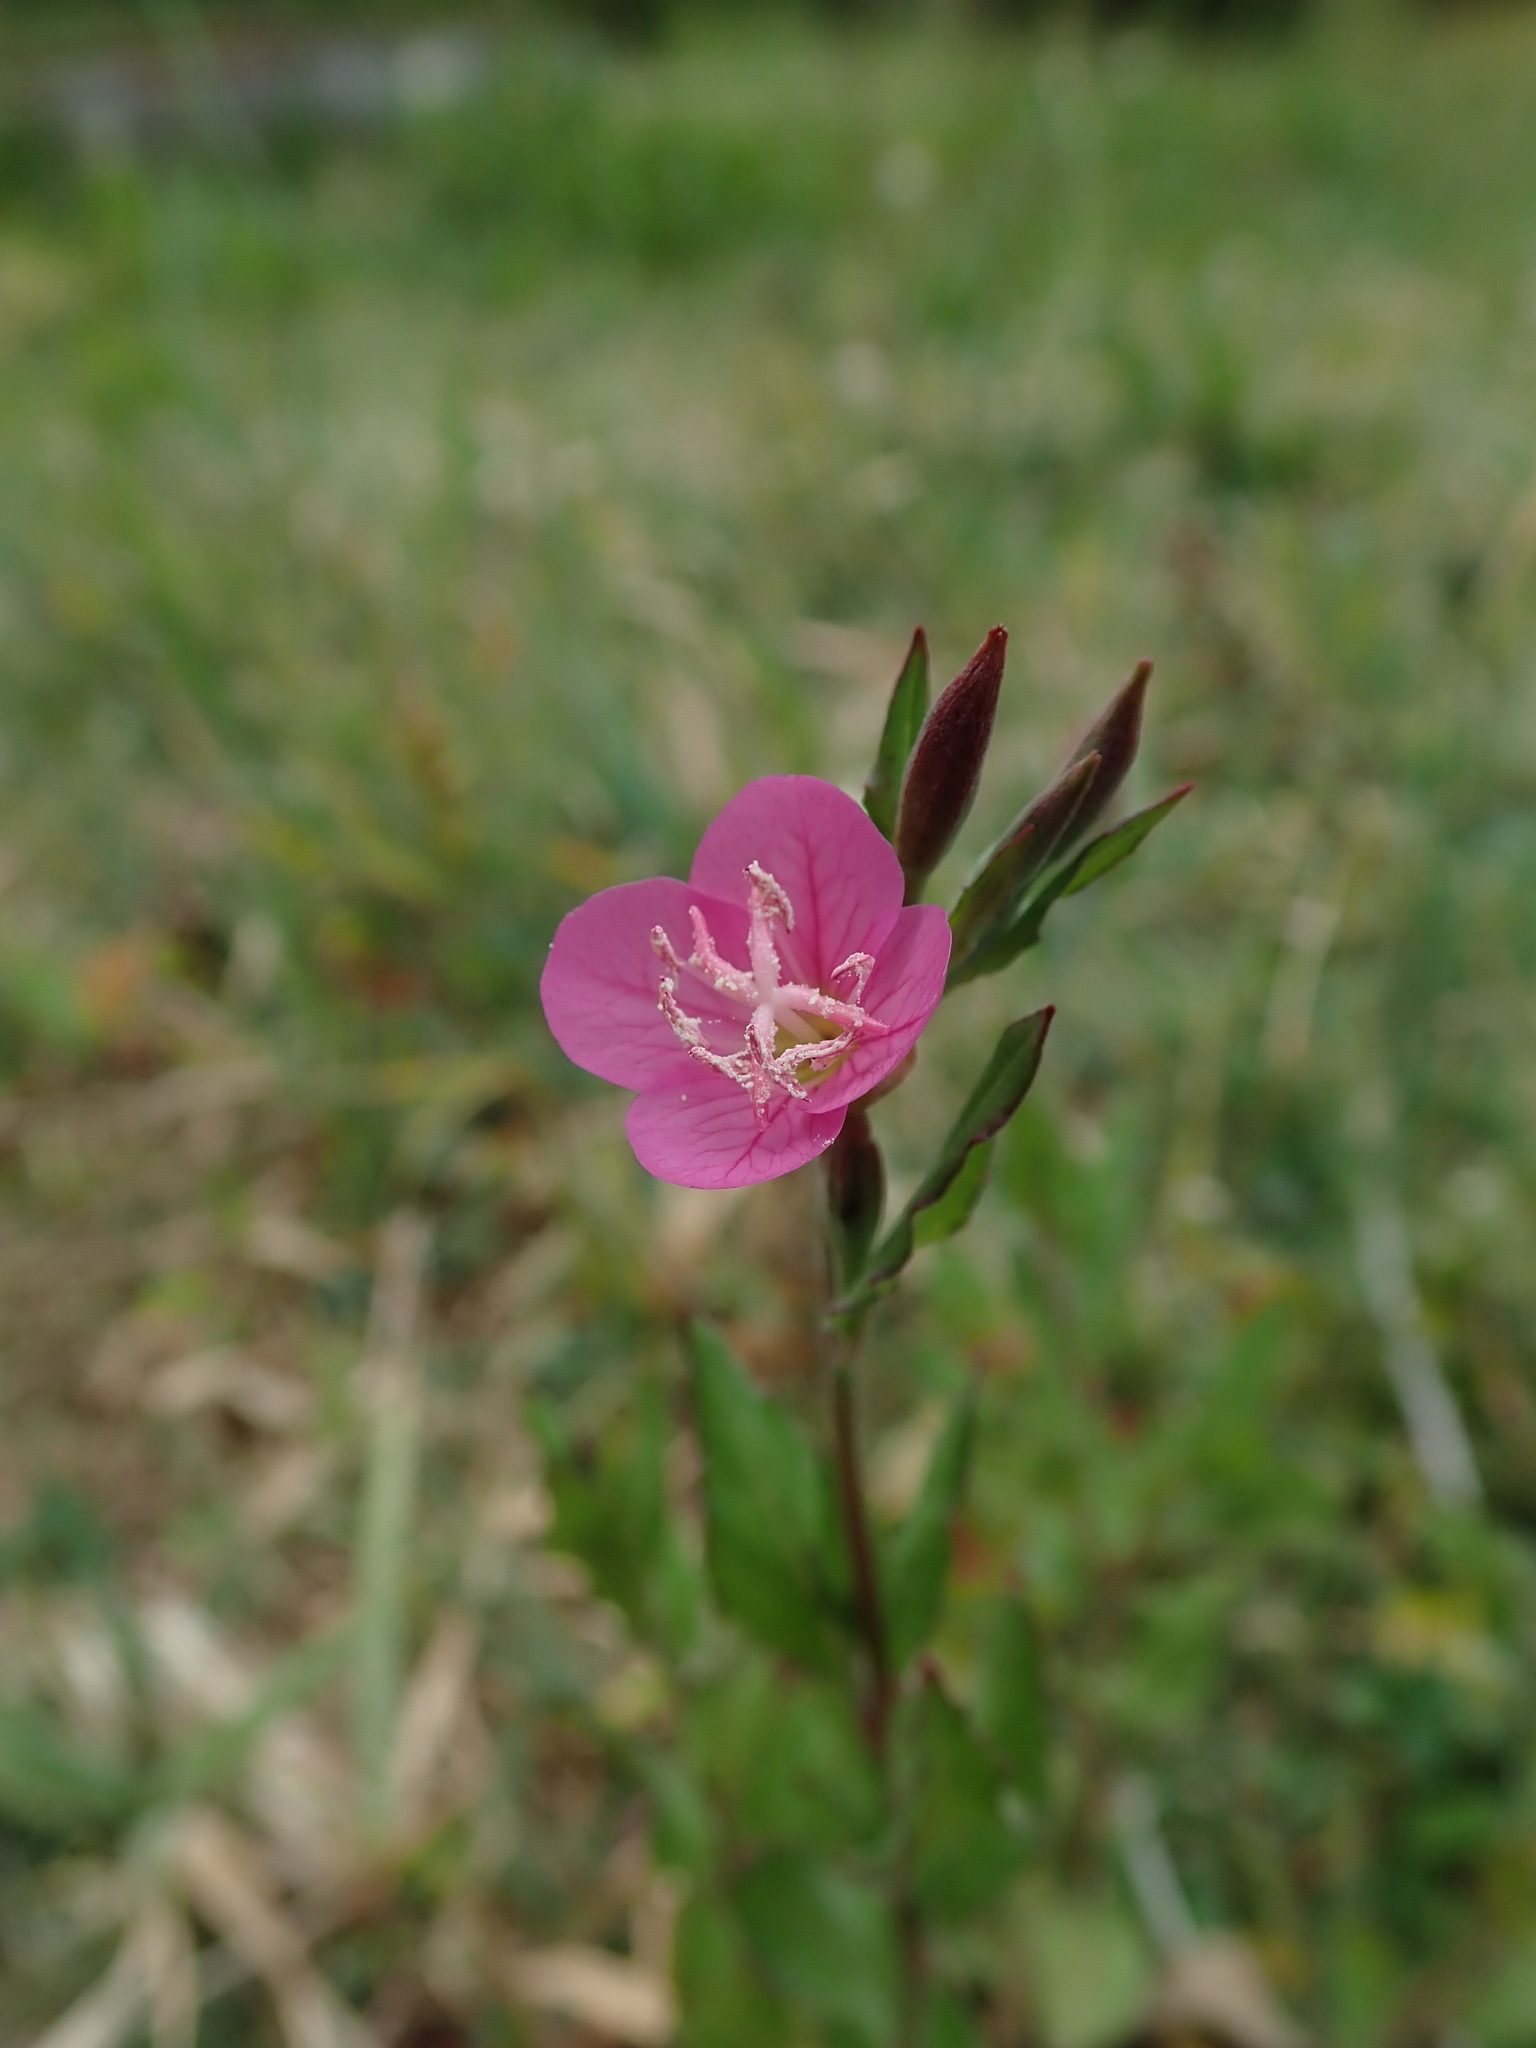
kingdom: Plantae
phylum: Tracheophyta
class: Magnoliopsida
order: Myrtales
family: Onagraceae
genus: Oenothera
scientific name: Oenothera rosea
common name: Rosy evening-primrose
